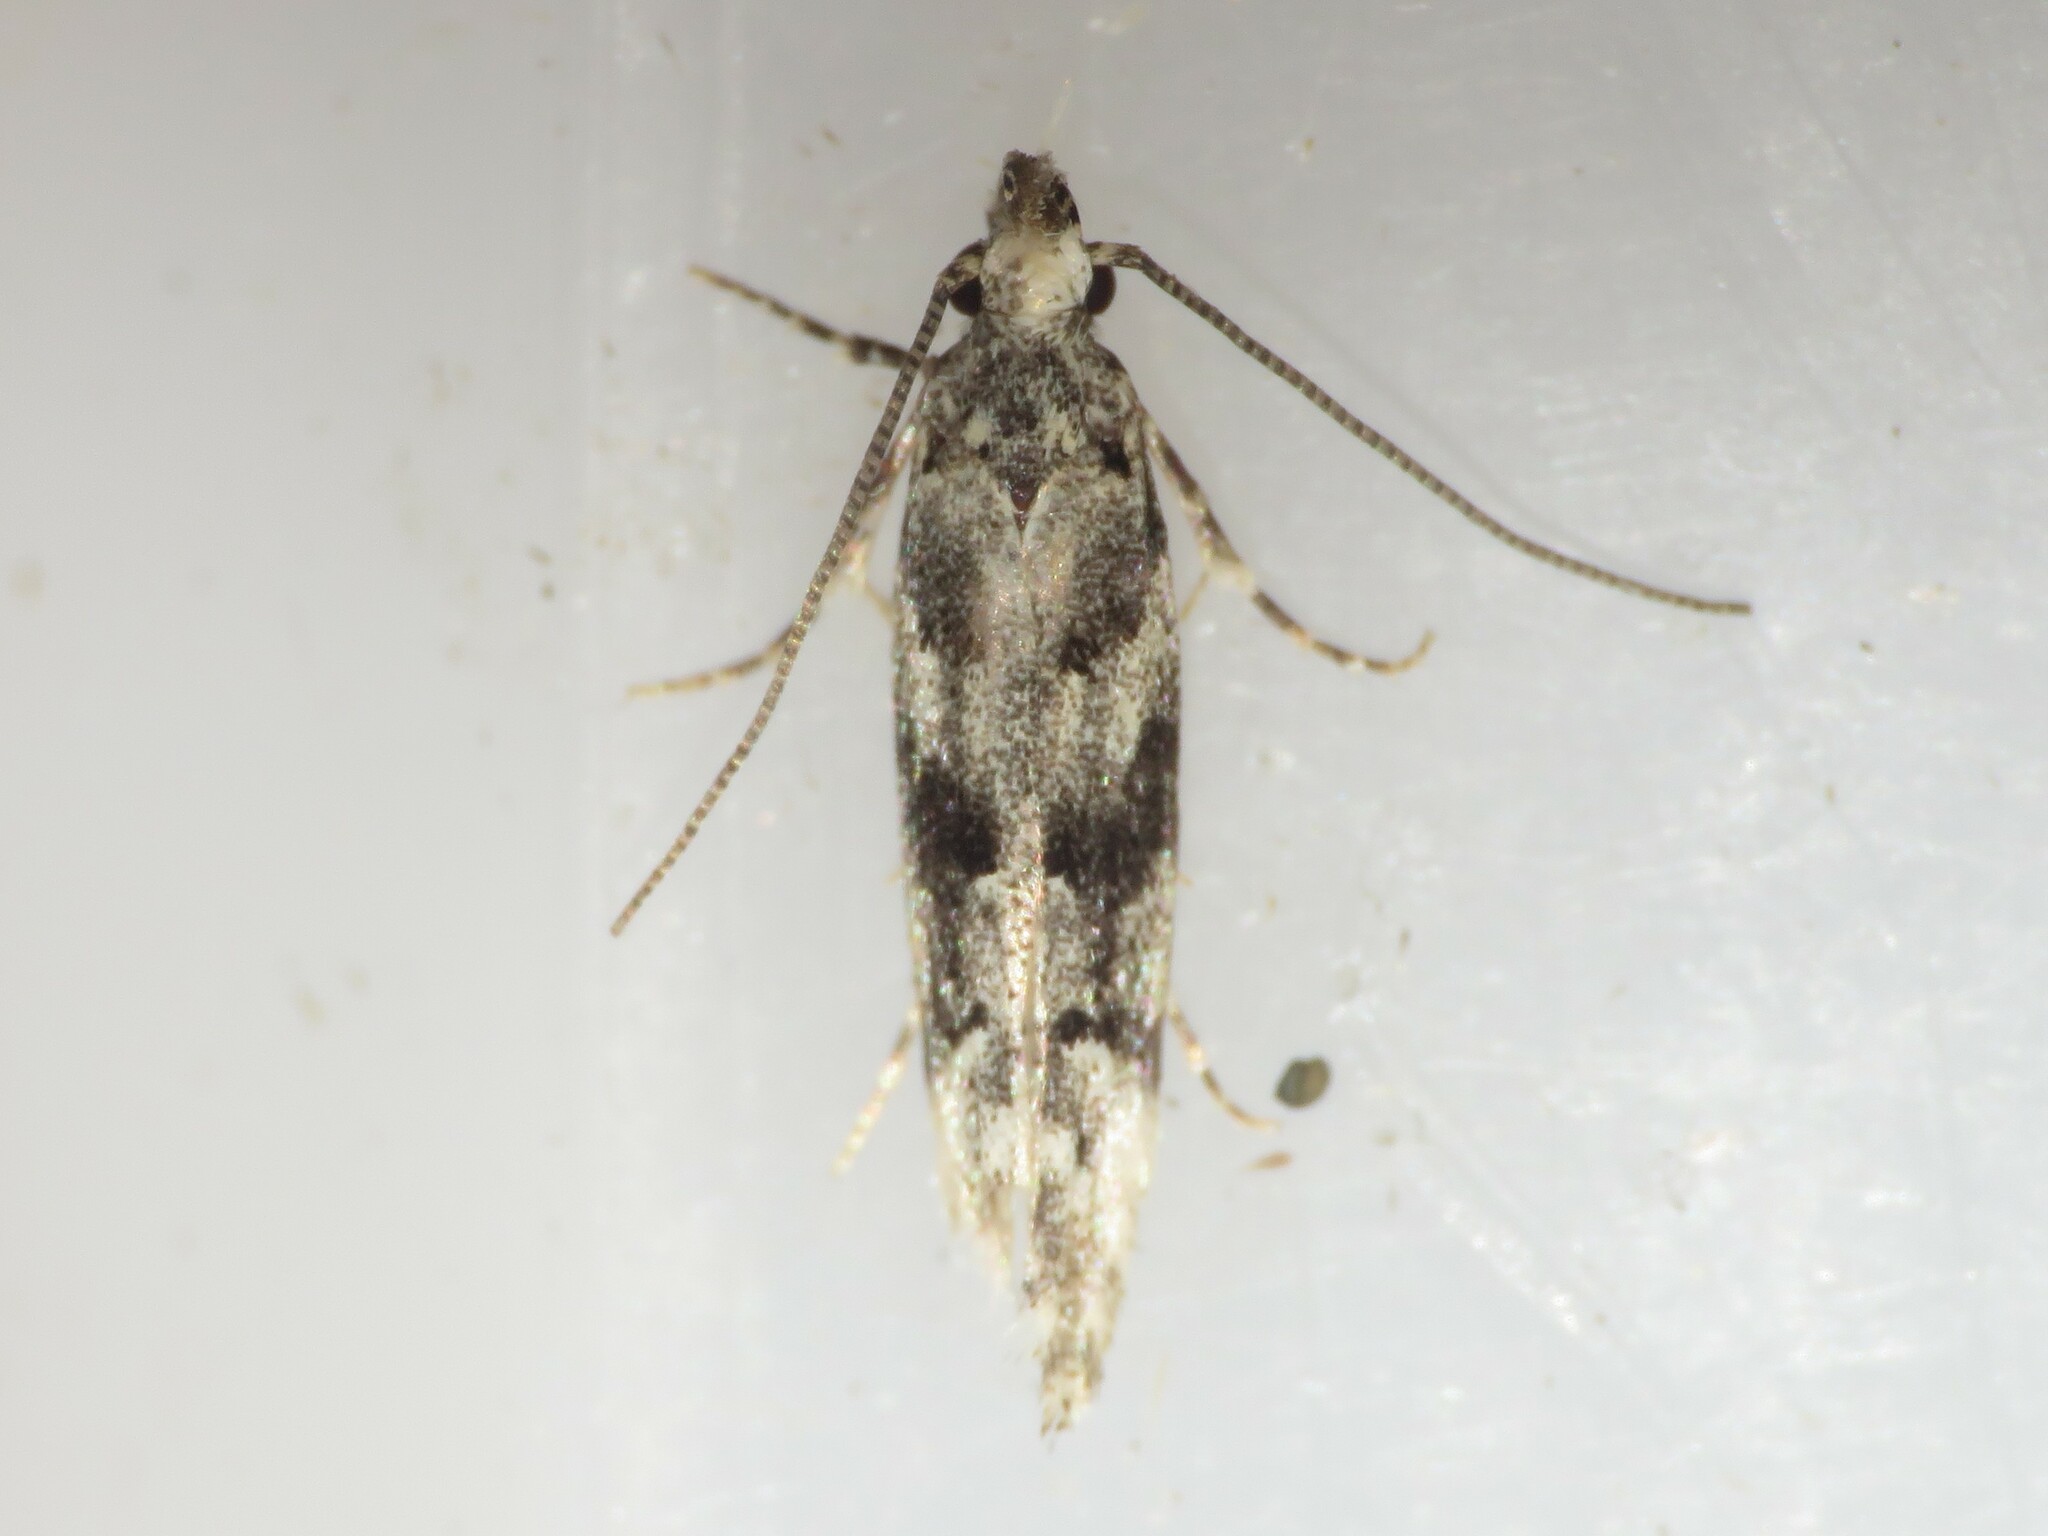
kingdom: Animalia
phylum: Arthropoda
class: Insecta
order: Lepidoptera
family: Gelechiidae
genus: Coleotechnites
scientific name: Coleotechnites atrupictella
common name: Spruce micromoth
